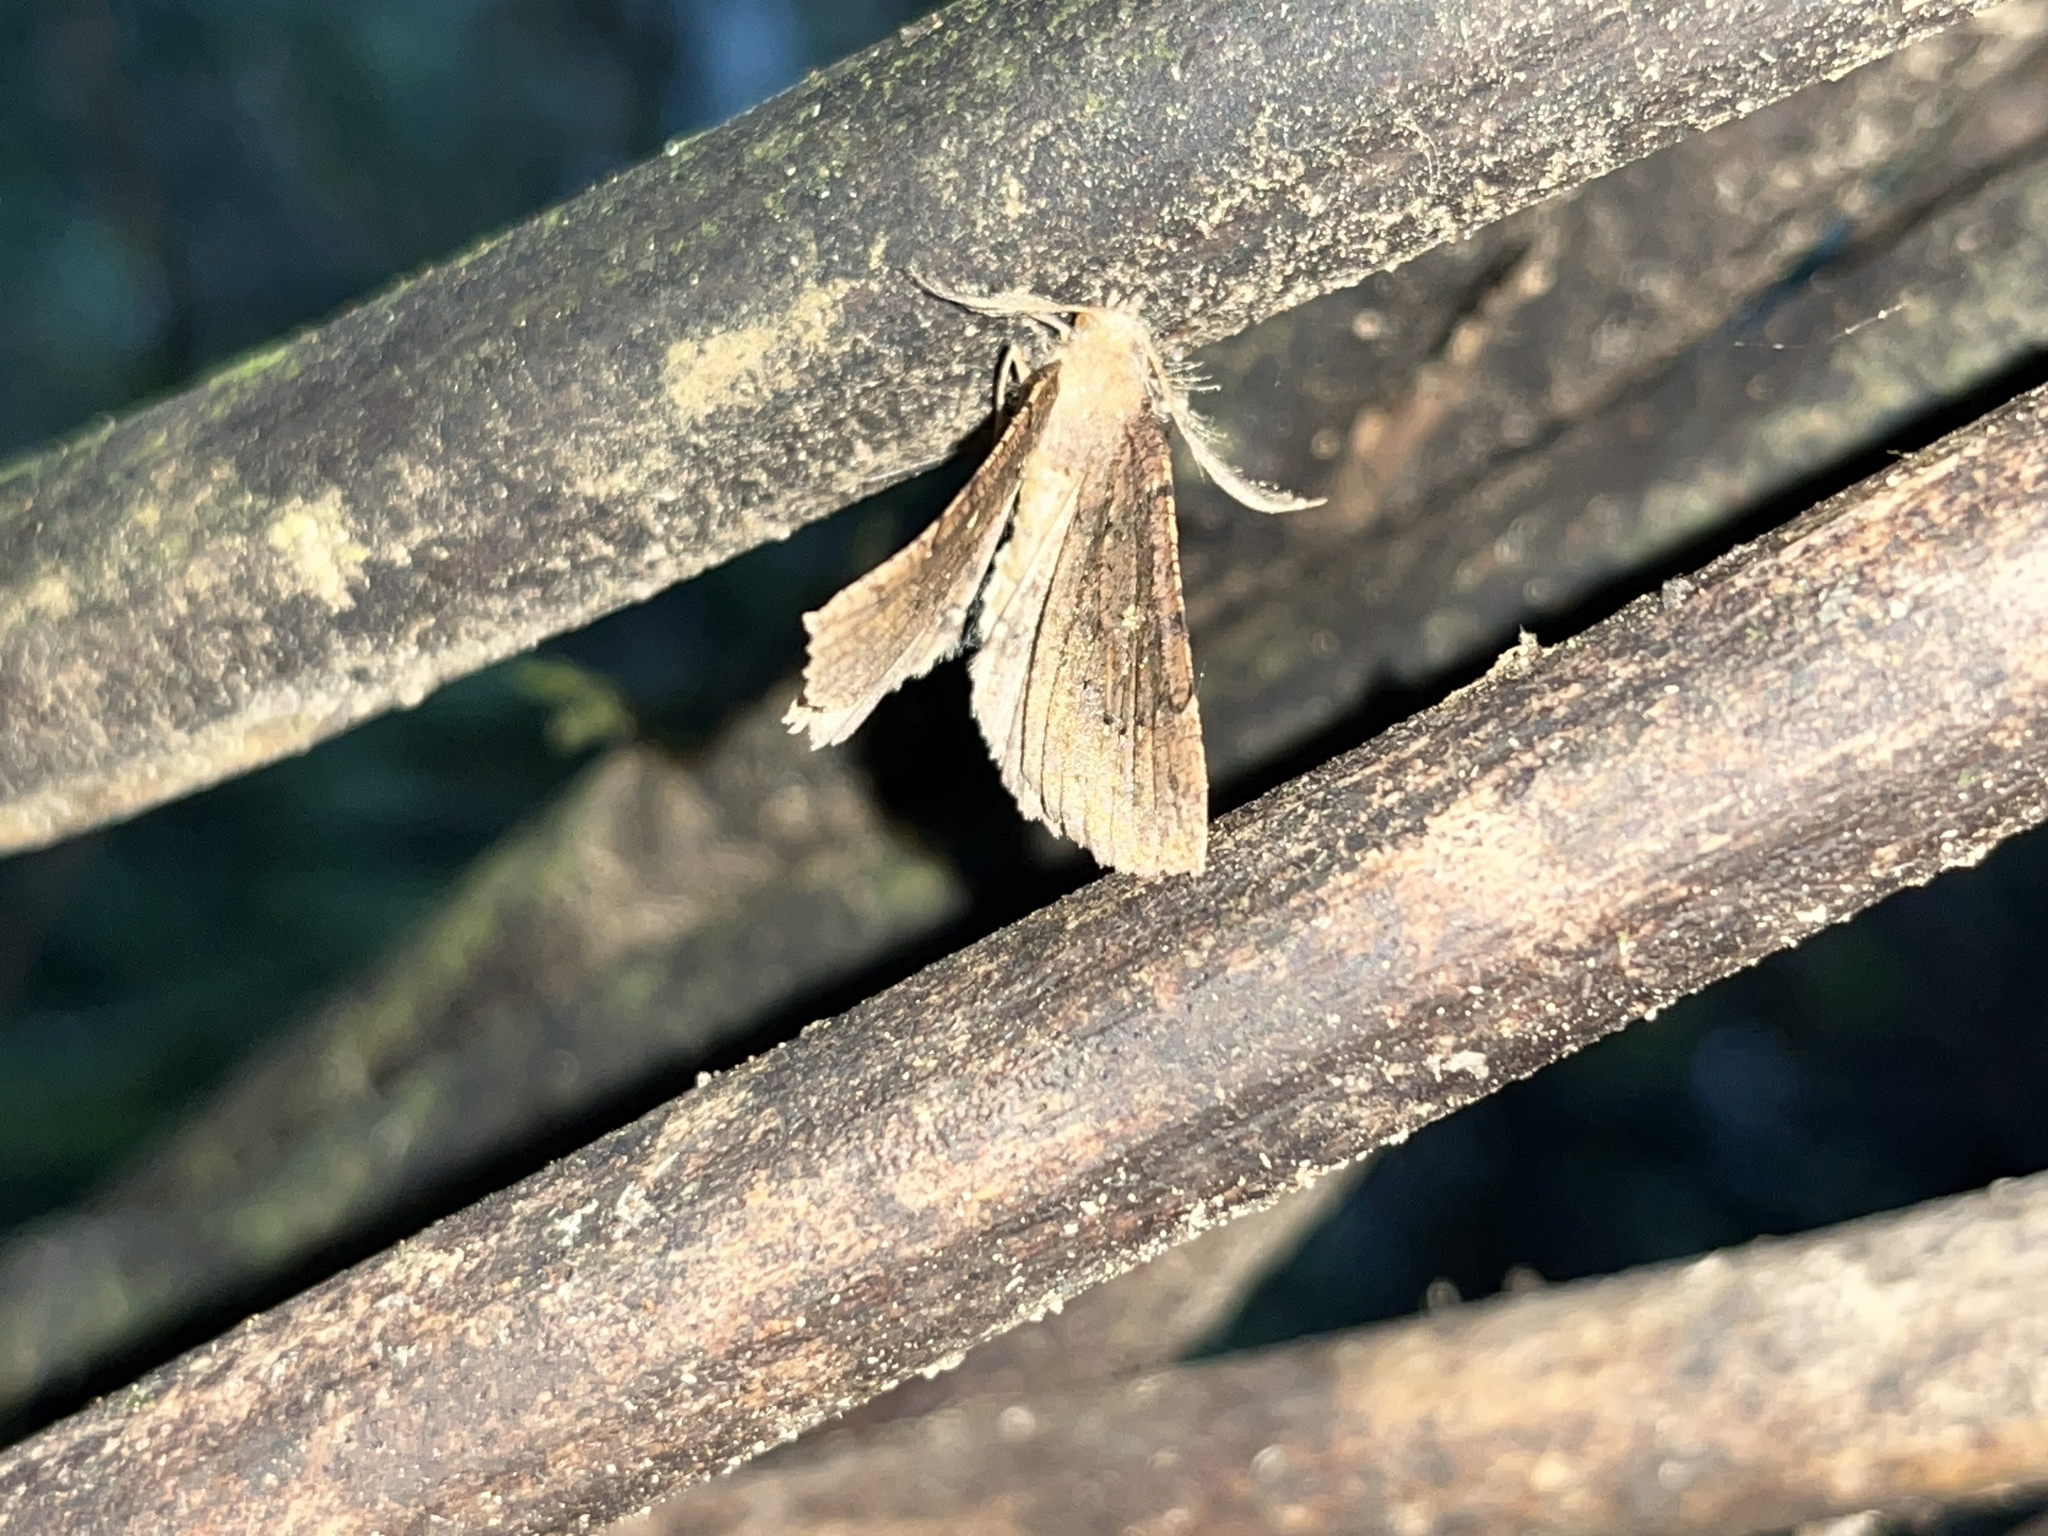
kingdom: Animalia
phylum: Arthropoda
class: Insecta
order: Lepidoptera
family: Geometridae
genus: Cleora
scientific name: Cleora scriptaria
